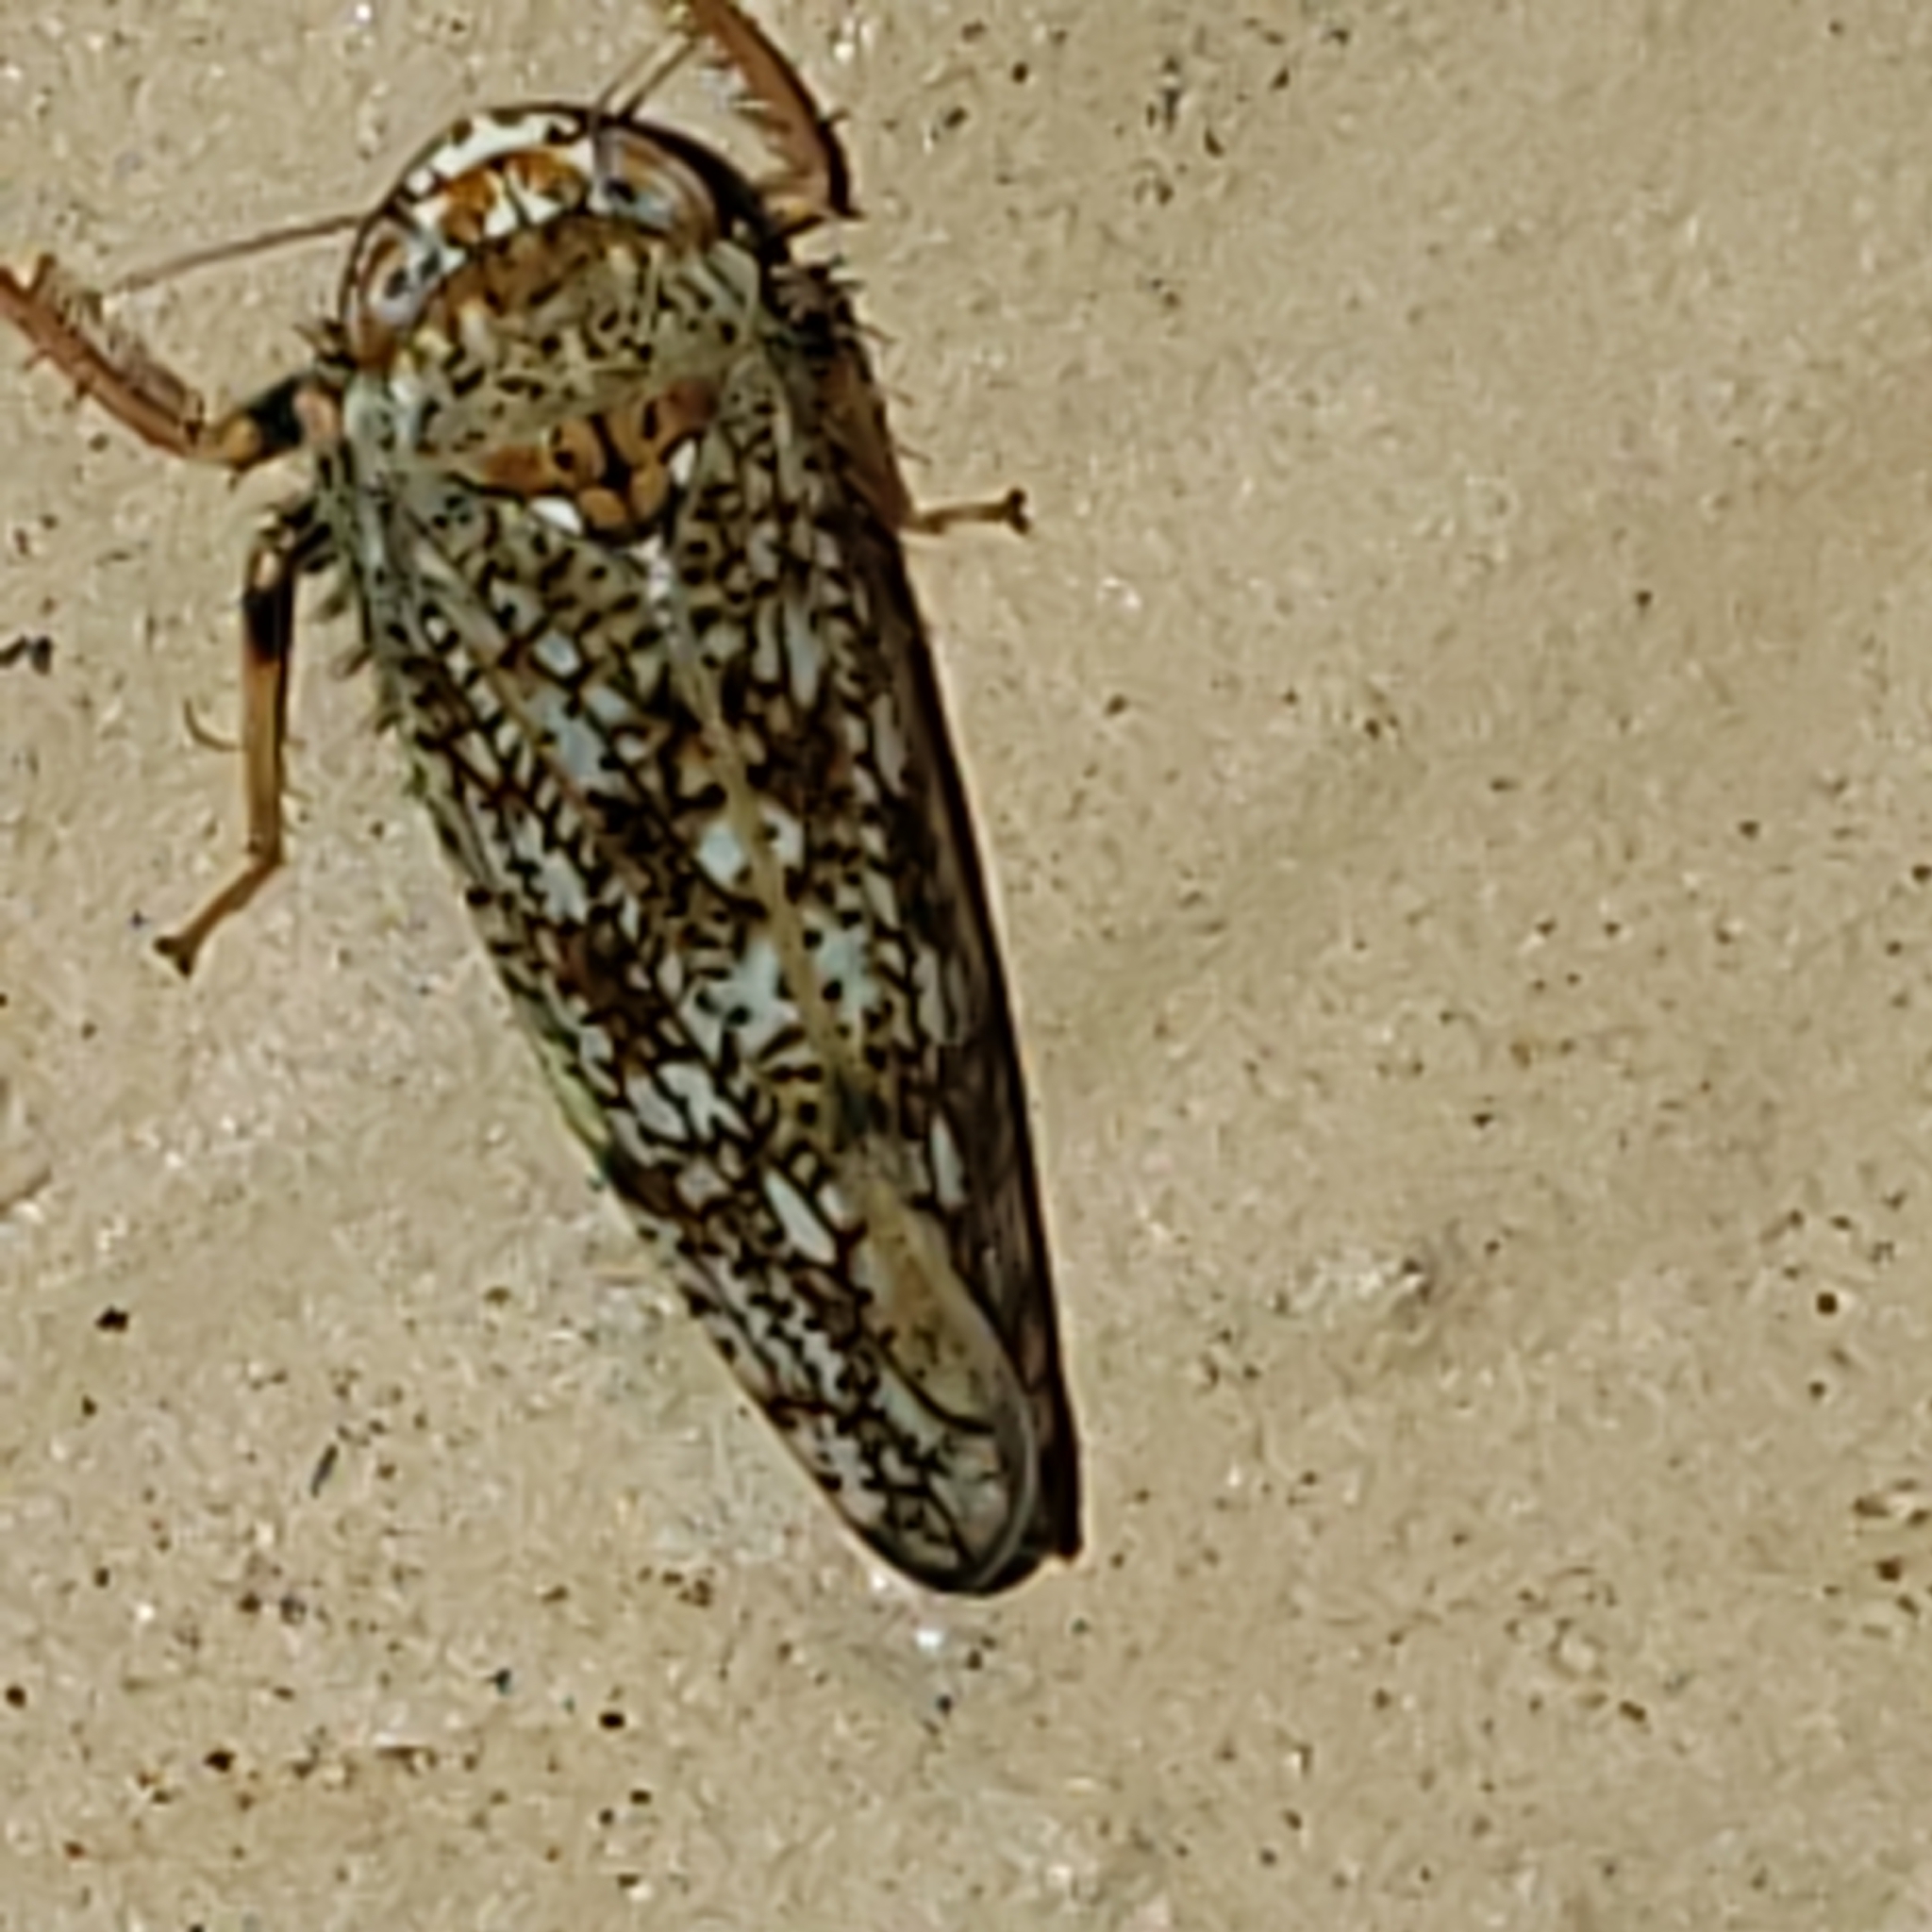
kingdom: Animalia
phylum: Arthropoda
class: Insecta
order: Hemiptera
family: Cicadellidae
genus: Orientus
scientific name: Orientus ishidae
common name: Japanese leafhopper
